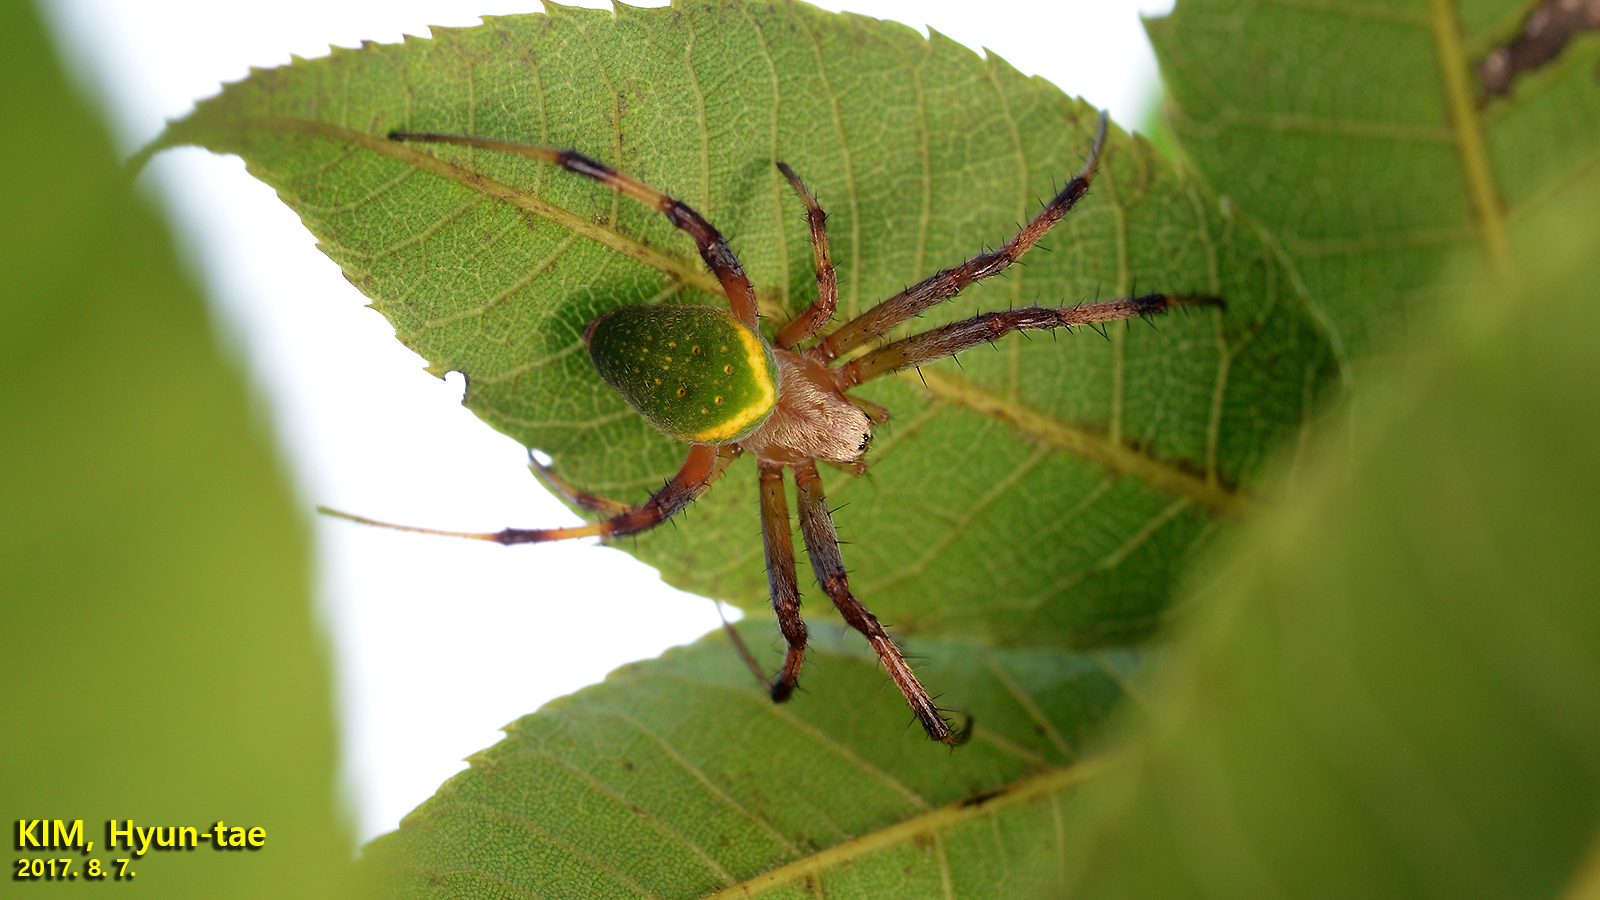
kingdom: Animalia
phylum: Arthropoda
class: Arachnida
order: Araneae
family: Araneidae
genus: Neoscona
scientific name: Neoscona scylloides
